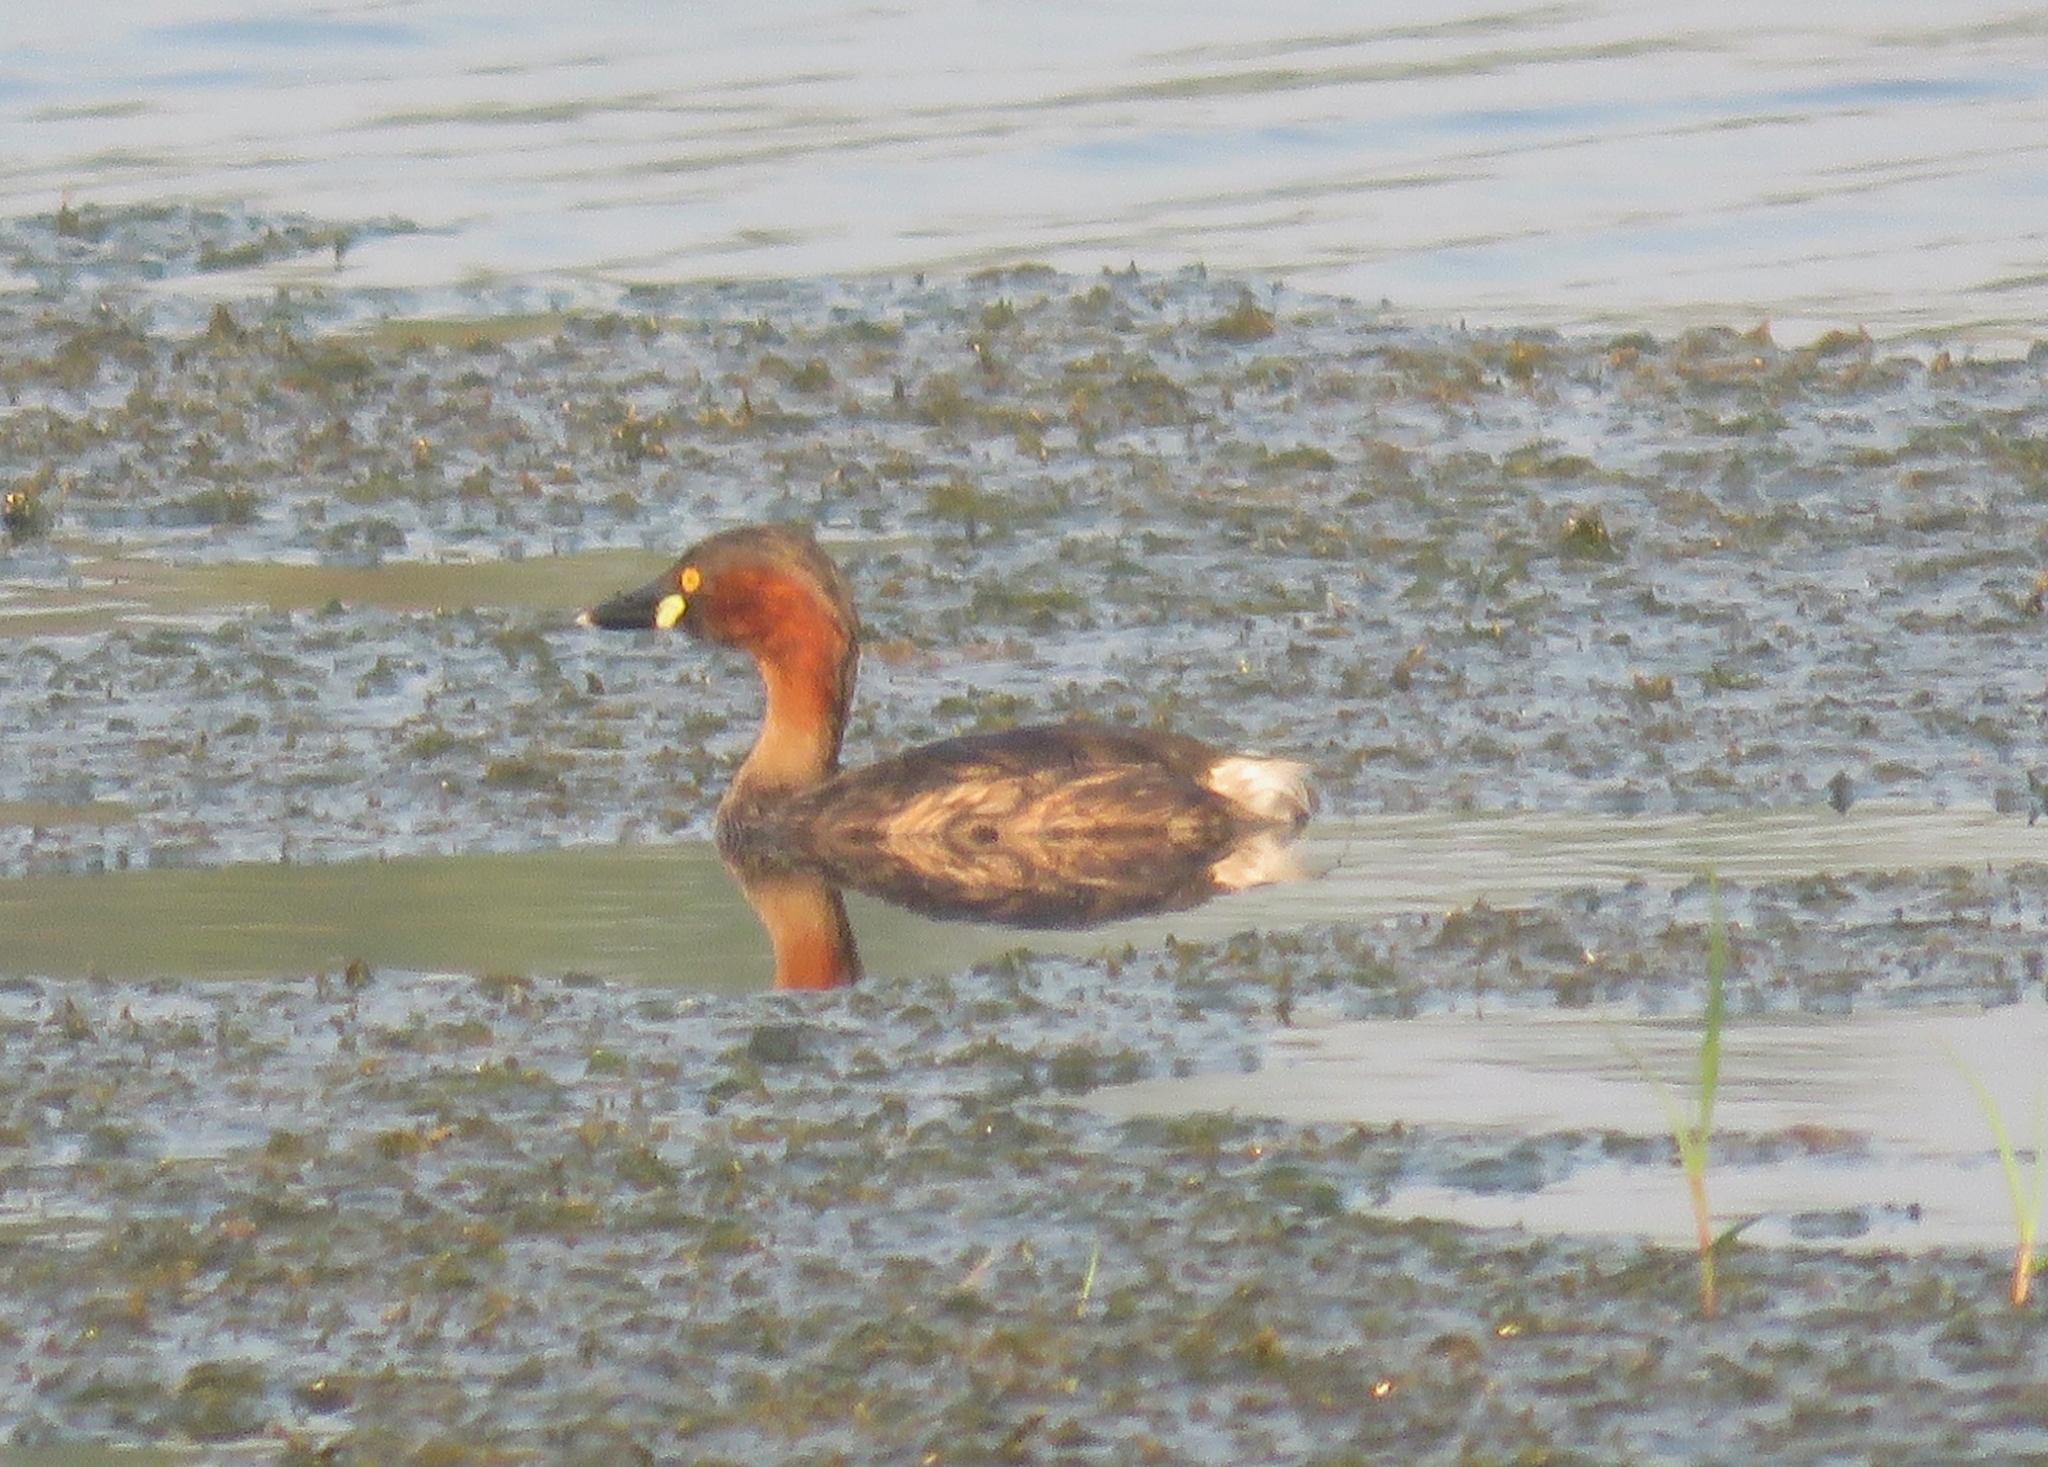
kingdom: Animalia
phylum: Chordata
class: Aves
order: Podicipediformes
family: Podicipedidae
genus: Tachybaptus
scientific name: Tachybaptus ruficollis
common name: Little grebe
